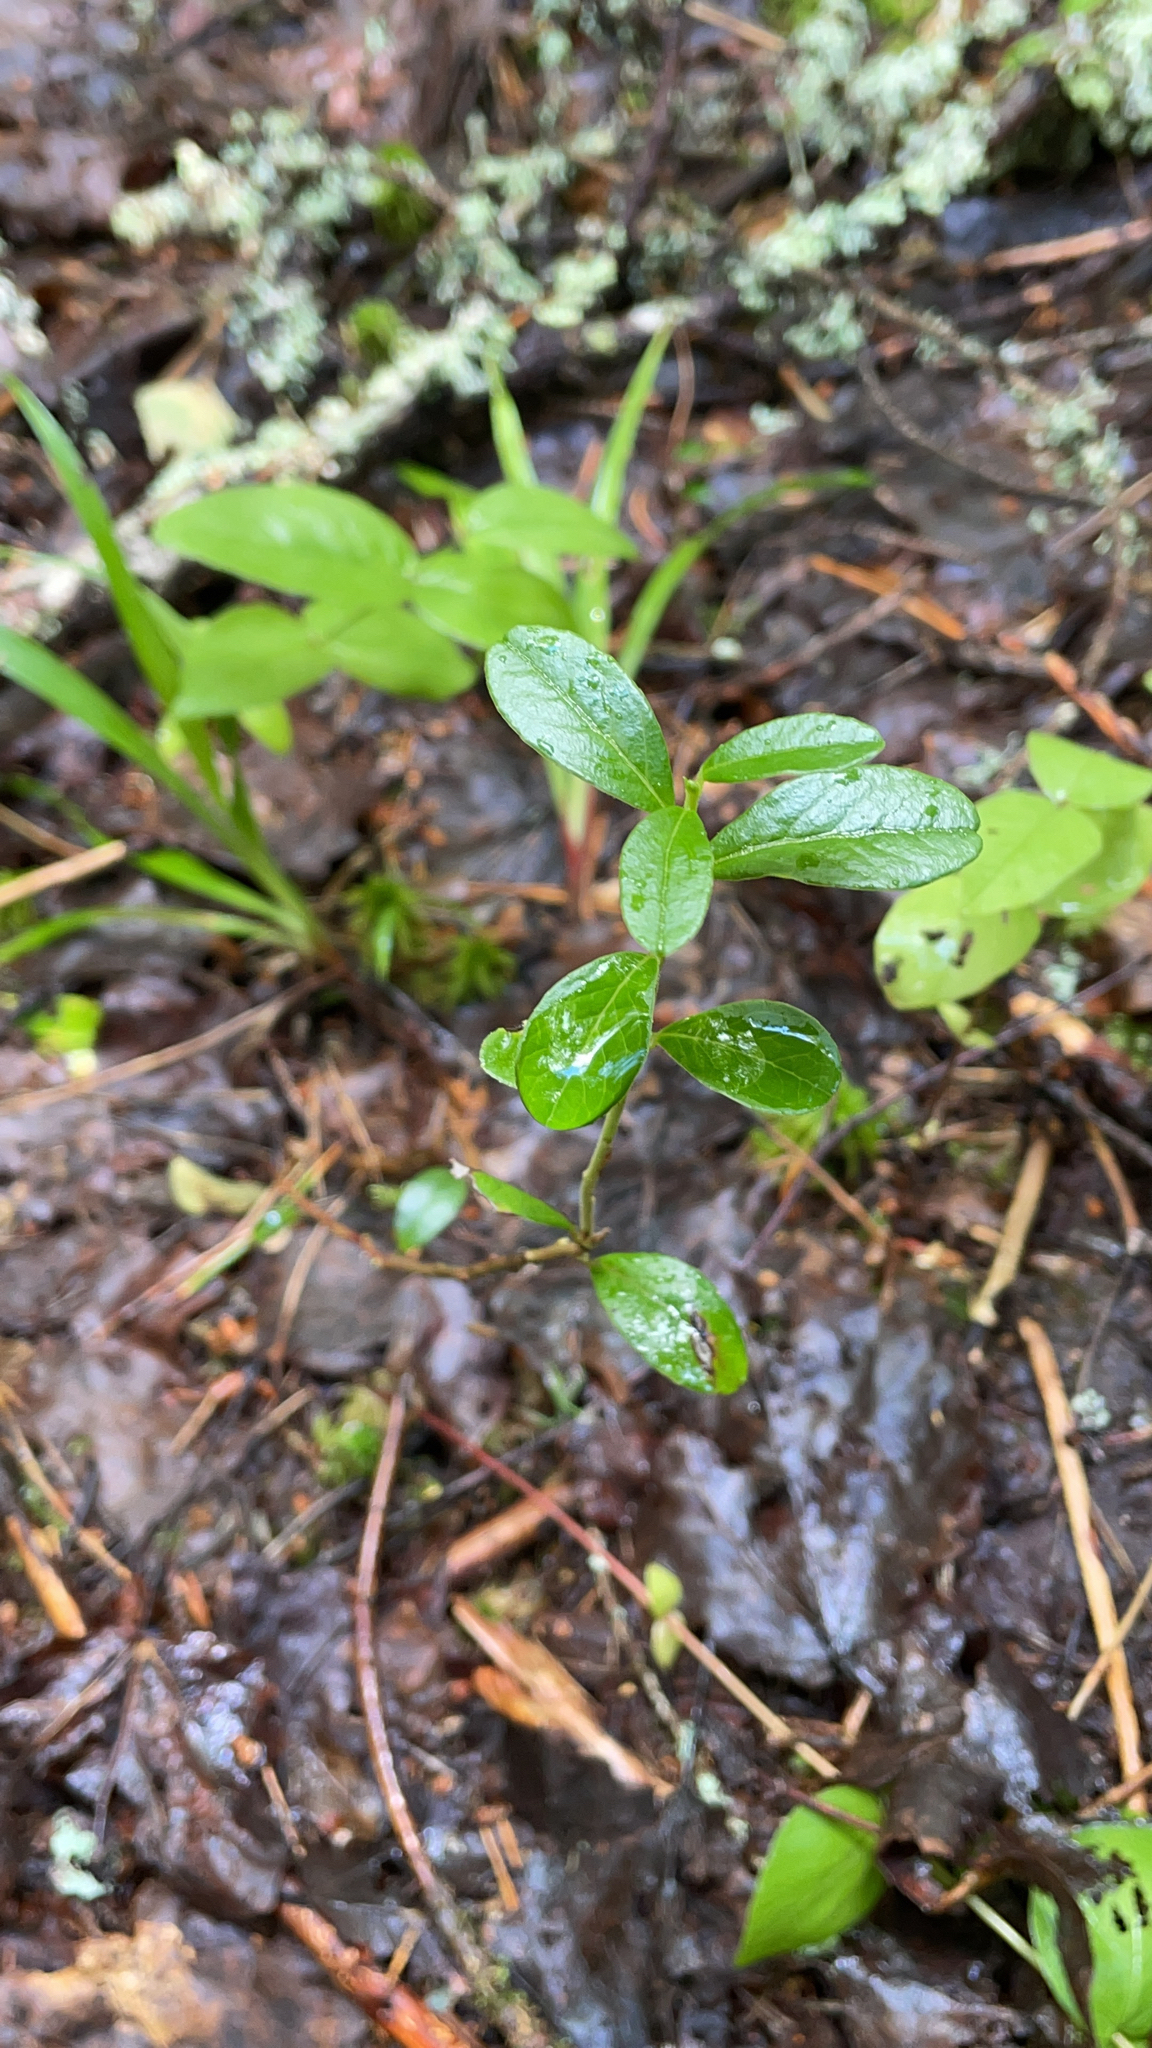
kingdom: Plantae
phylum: Tracheophyta
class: Magnoliopsida
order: Ericales
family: Ericaceae
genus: Vaccinium
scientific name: Vaccinium vitis-idaea
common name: Cowberry
